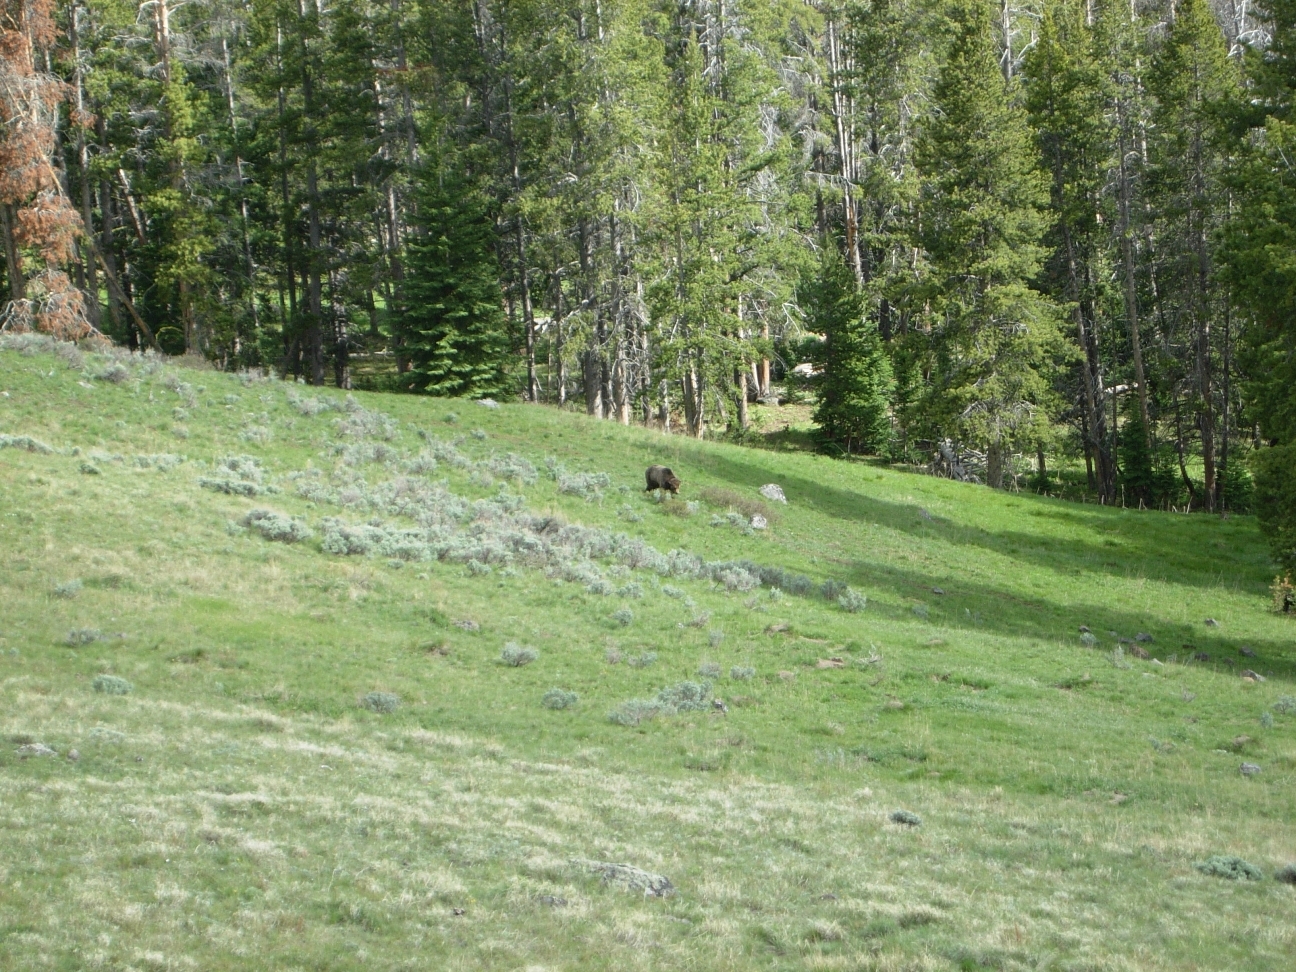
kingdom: Animalia
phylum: Chordata
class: Mammalia
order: Carnivora
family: Ursidae
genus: Ursus
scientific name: Ursus arctos
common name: Brown bear
